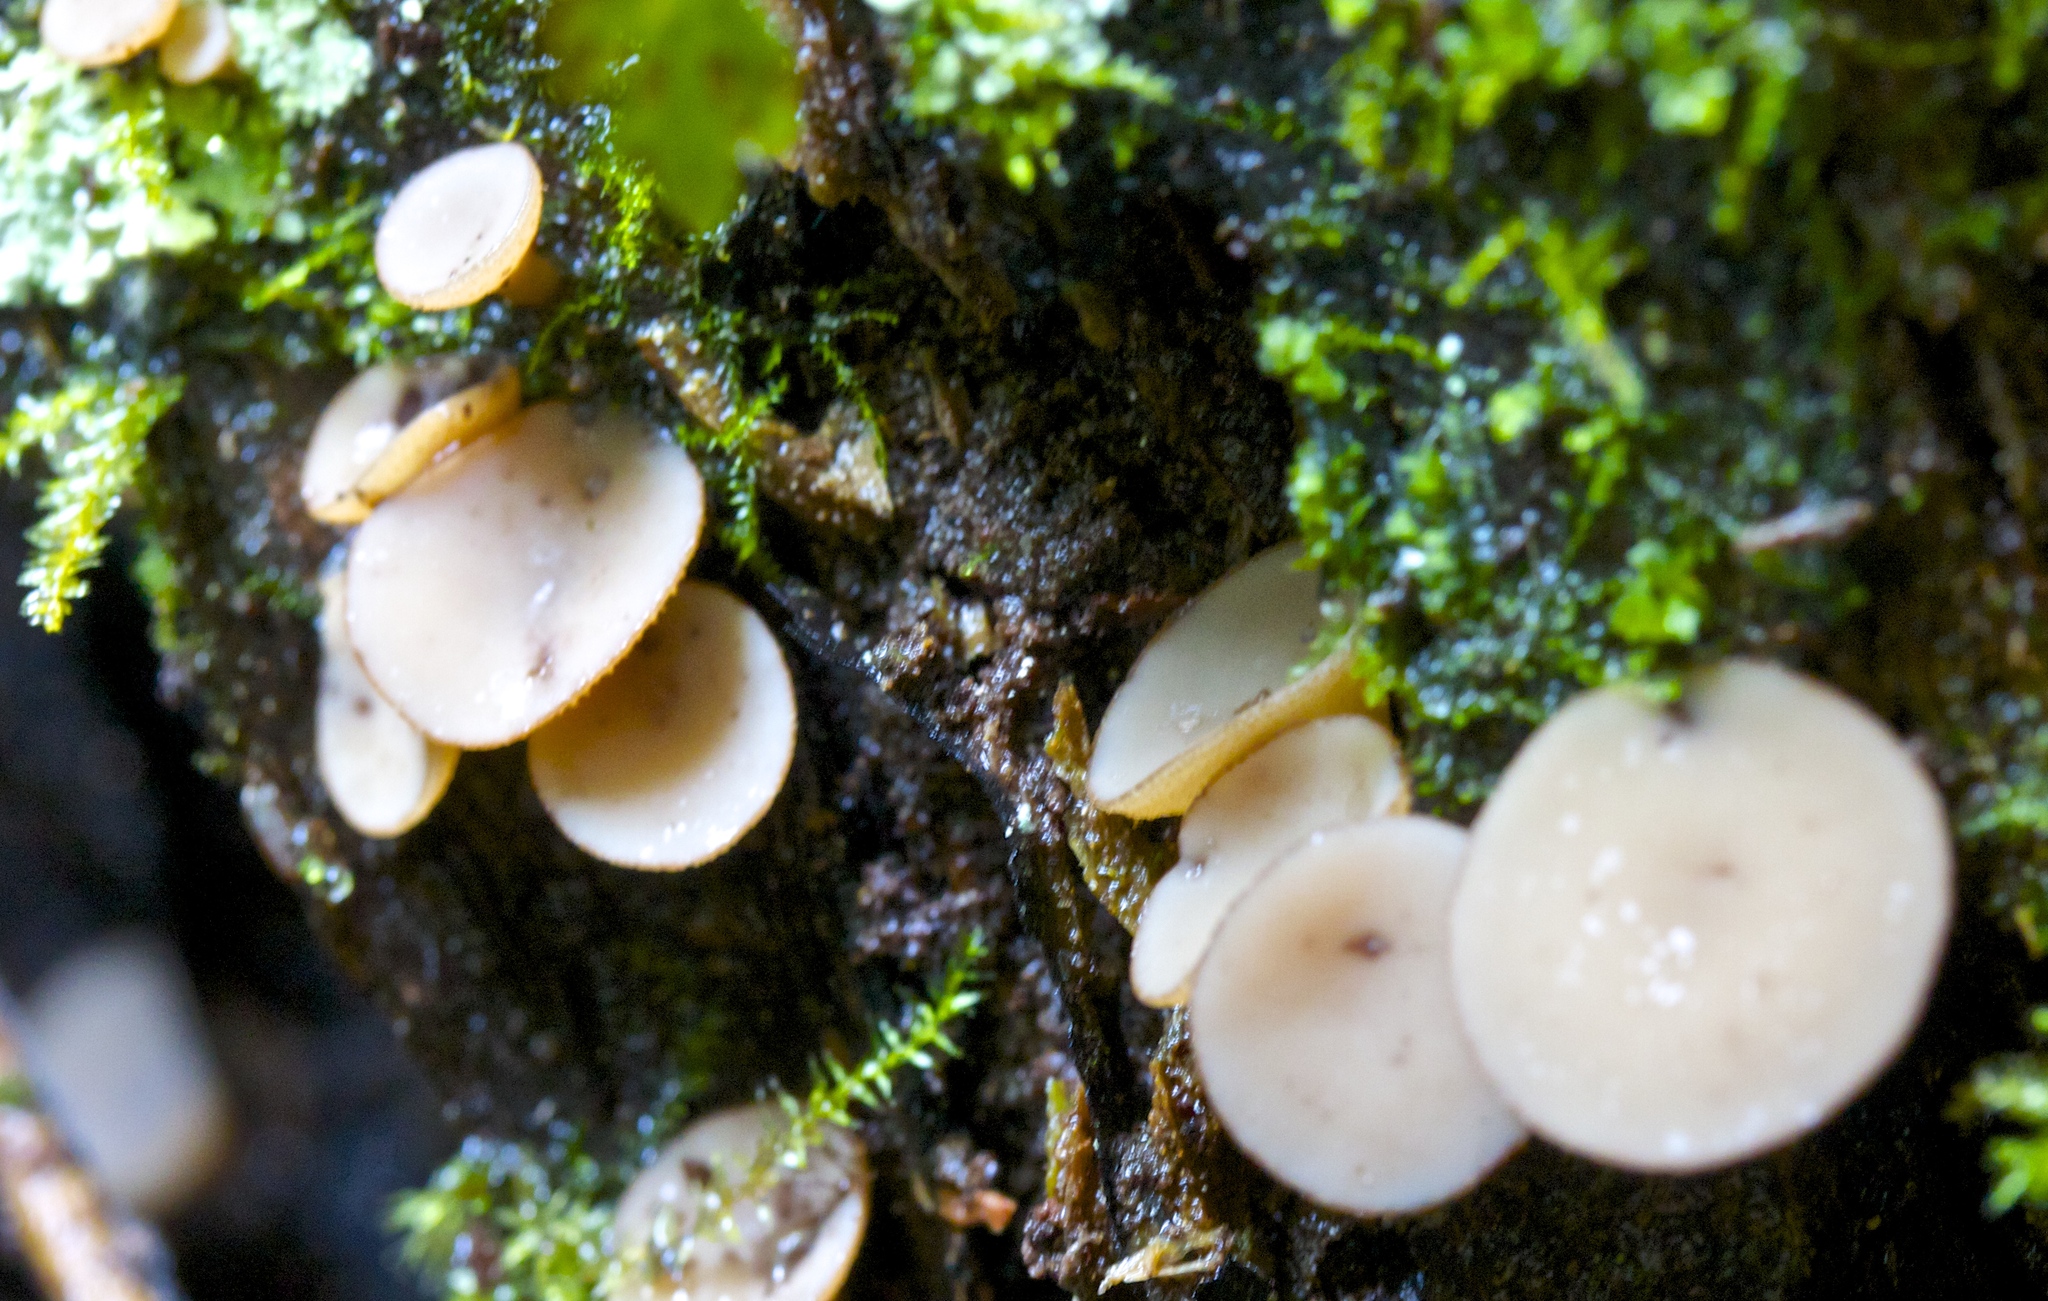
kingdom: Fungi
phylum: Ascomycota
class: Leotiomycetes
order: Helotiales
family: Helotiaceae
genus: Tatraea
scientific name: Tatraea macrospora
